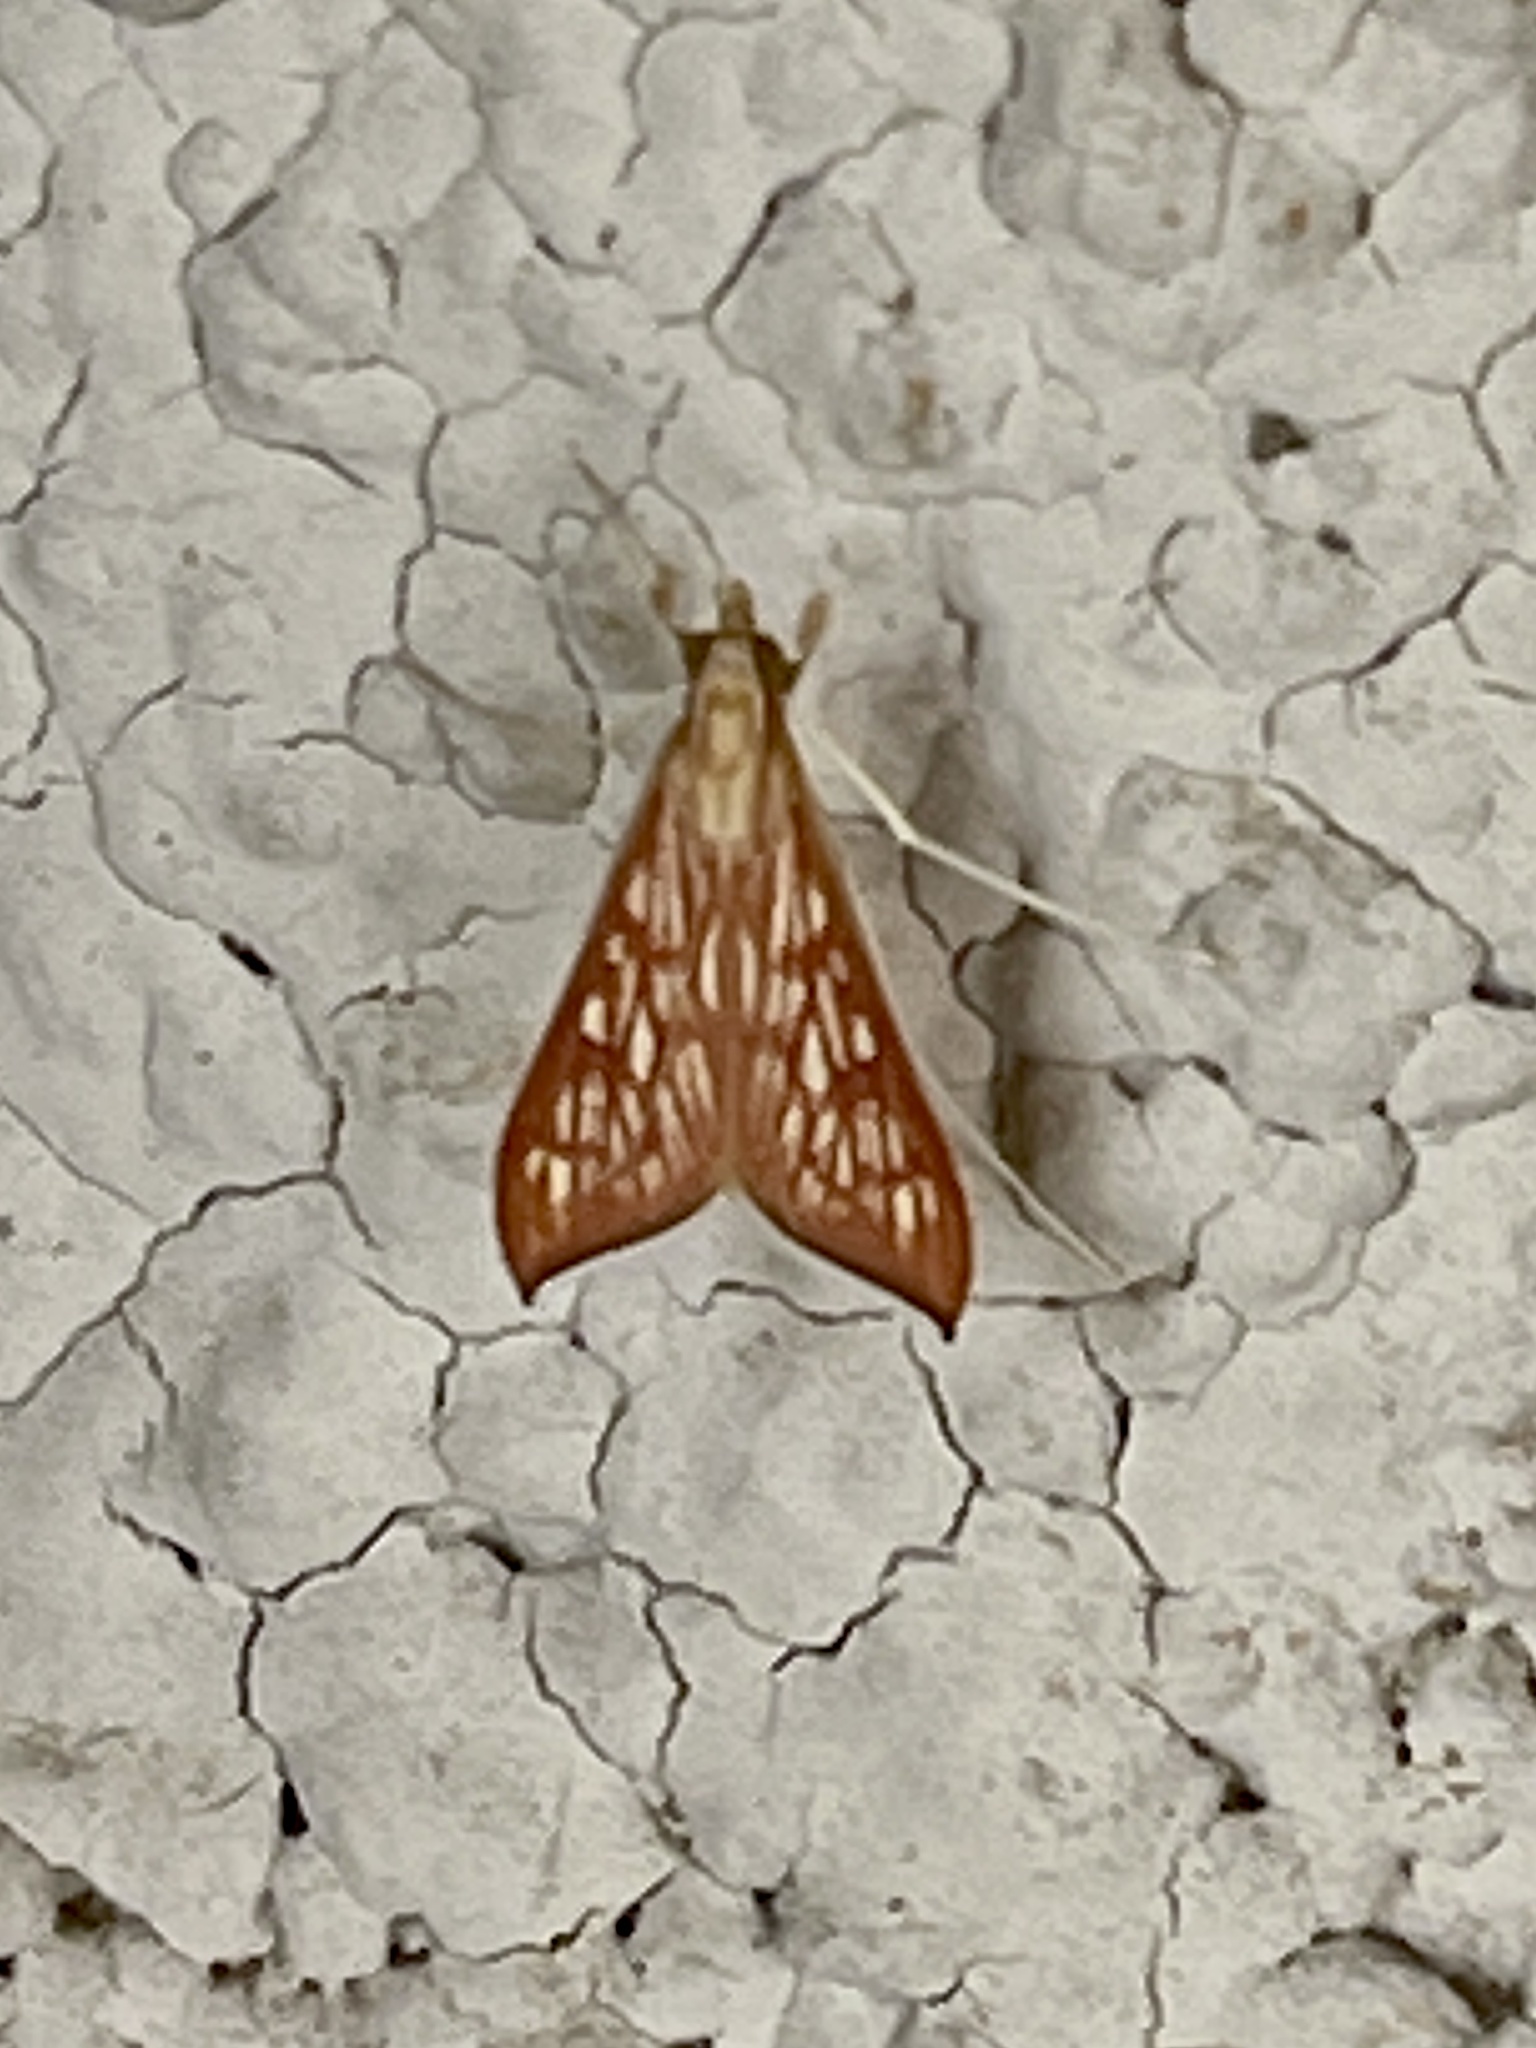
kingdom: Animalia
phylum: Arthropoda
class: Insecta
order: Lepidoptera
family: Crambidae
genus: Antigastra
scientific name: Antigastra catalaunalis
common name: Spanish dot
